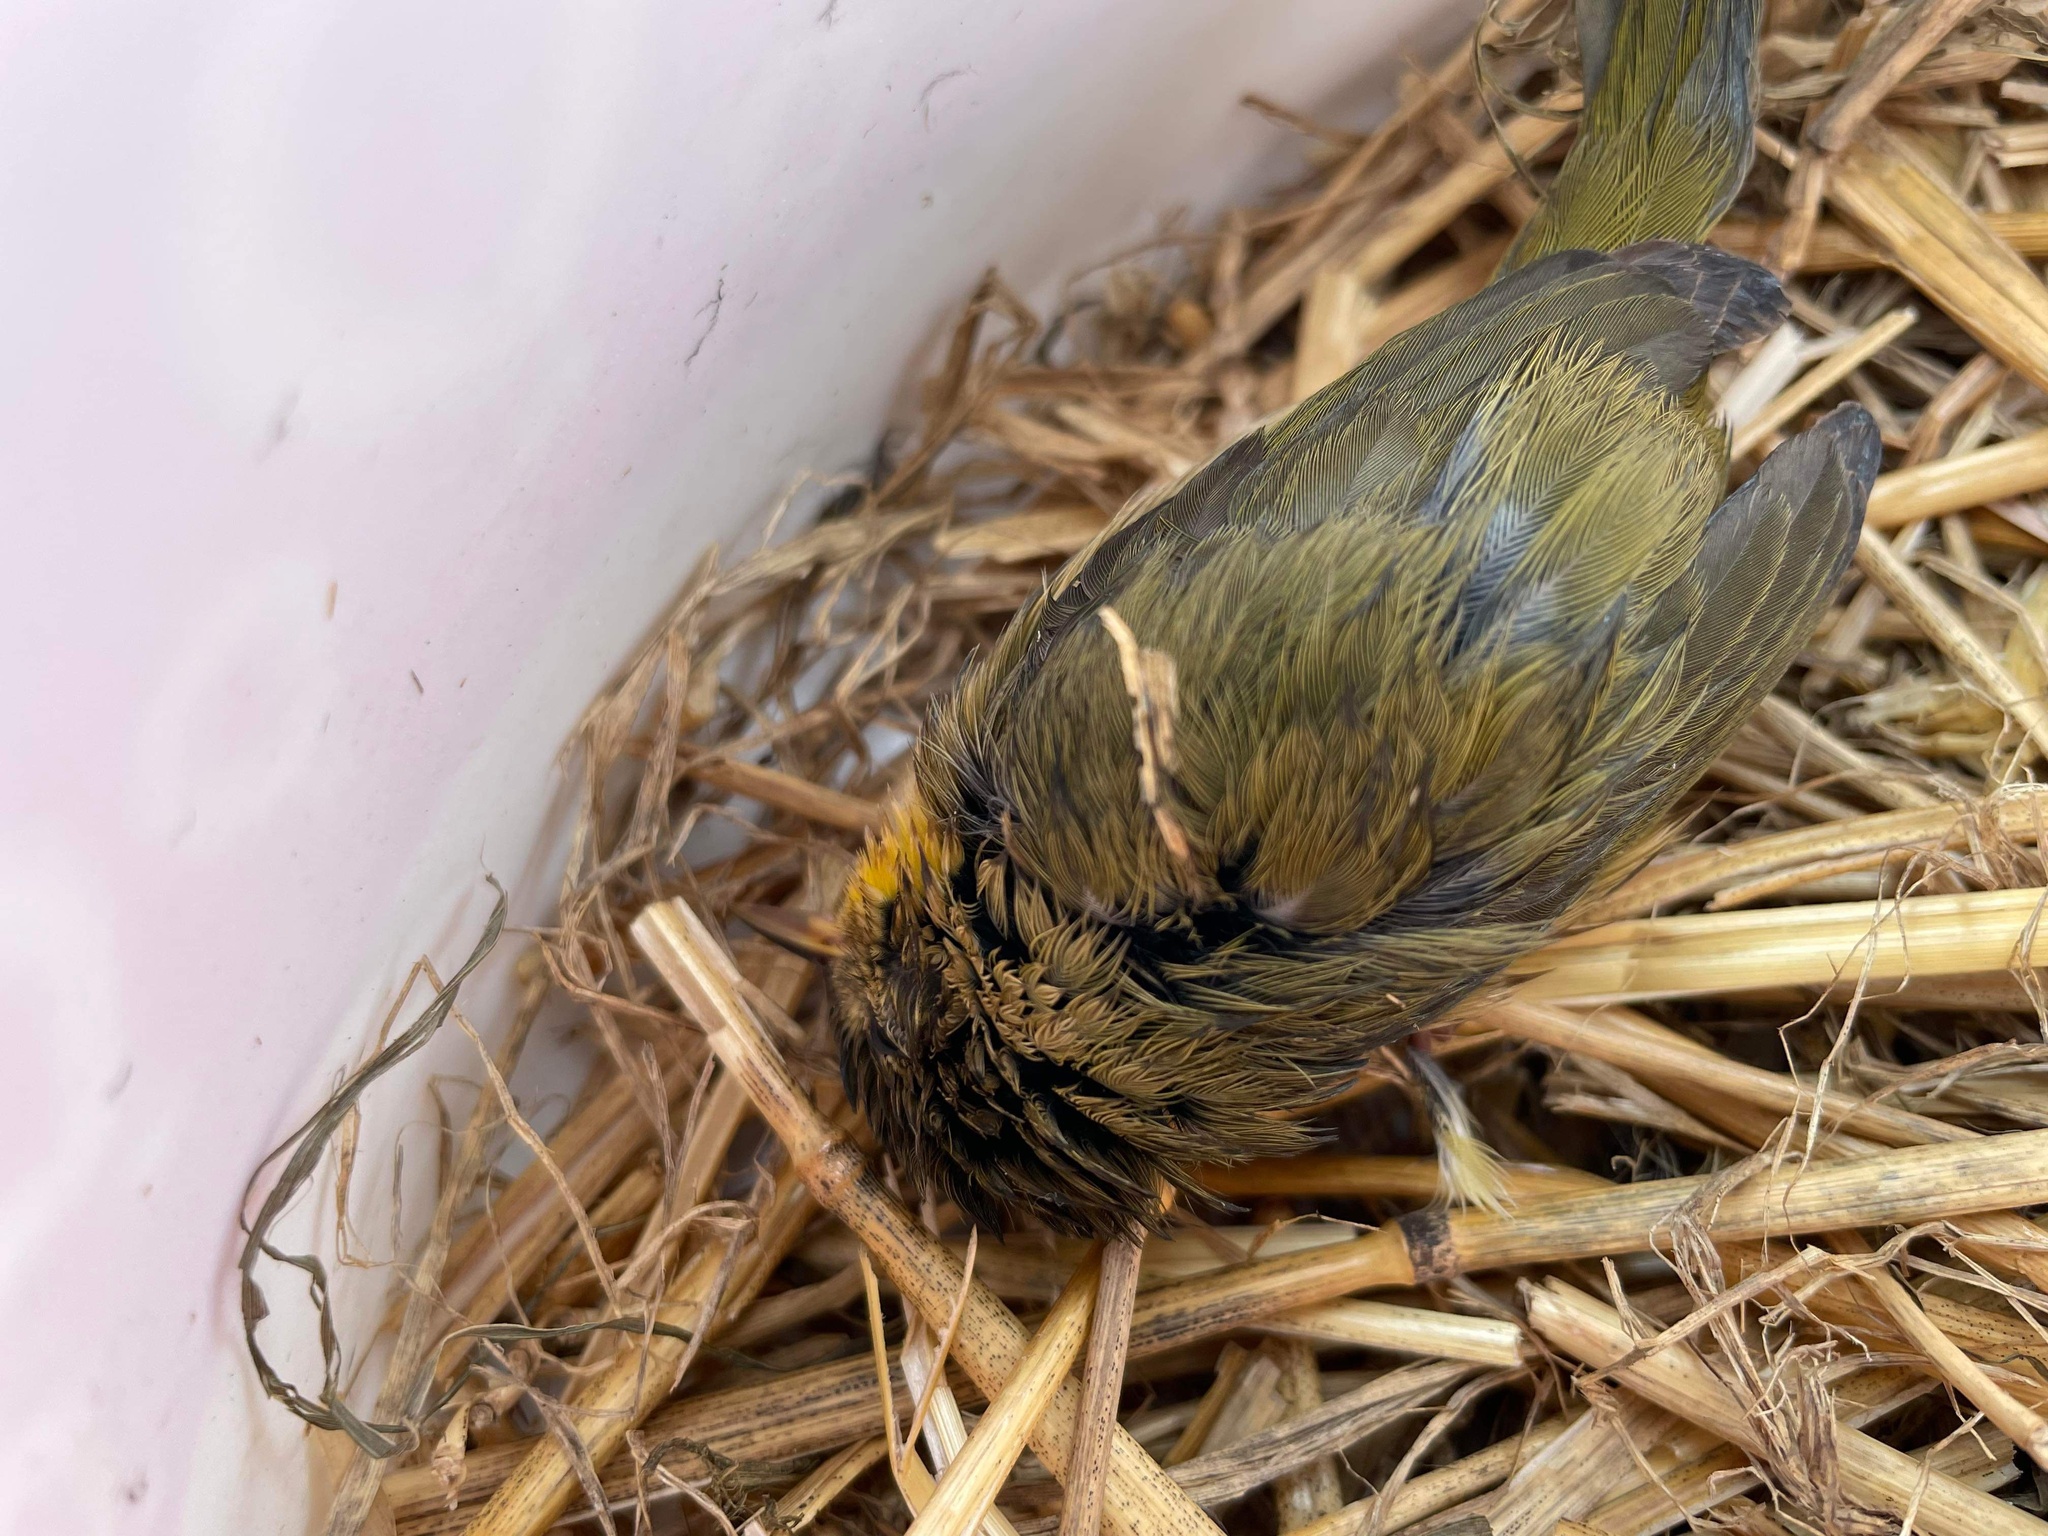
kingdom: Animalia
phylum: Chordata
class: Aves
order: Passeriformes
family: Parulidae
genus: Geothlypis
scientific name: Geothlypis trichas
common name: Common yellowthroat
